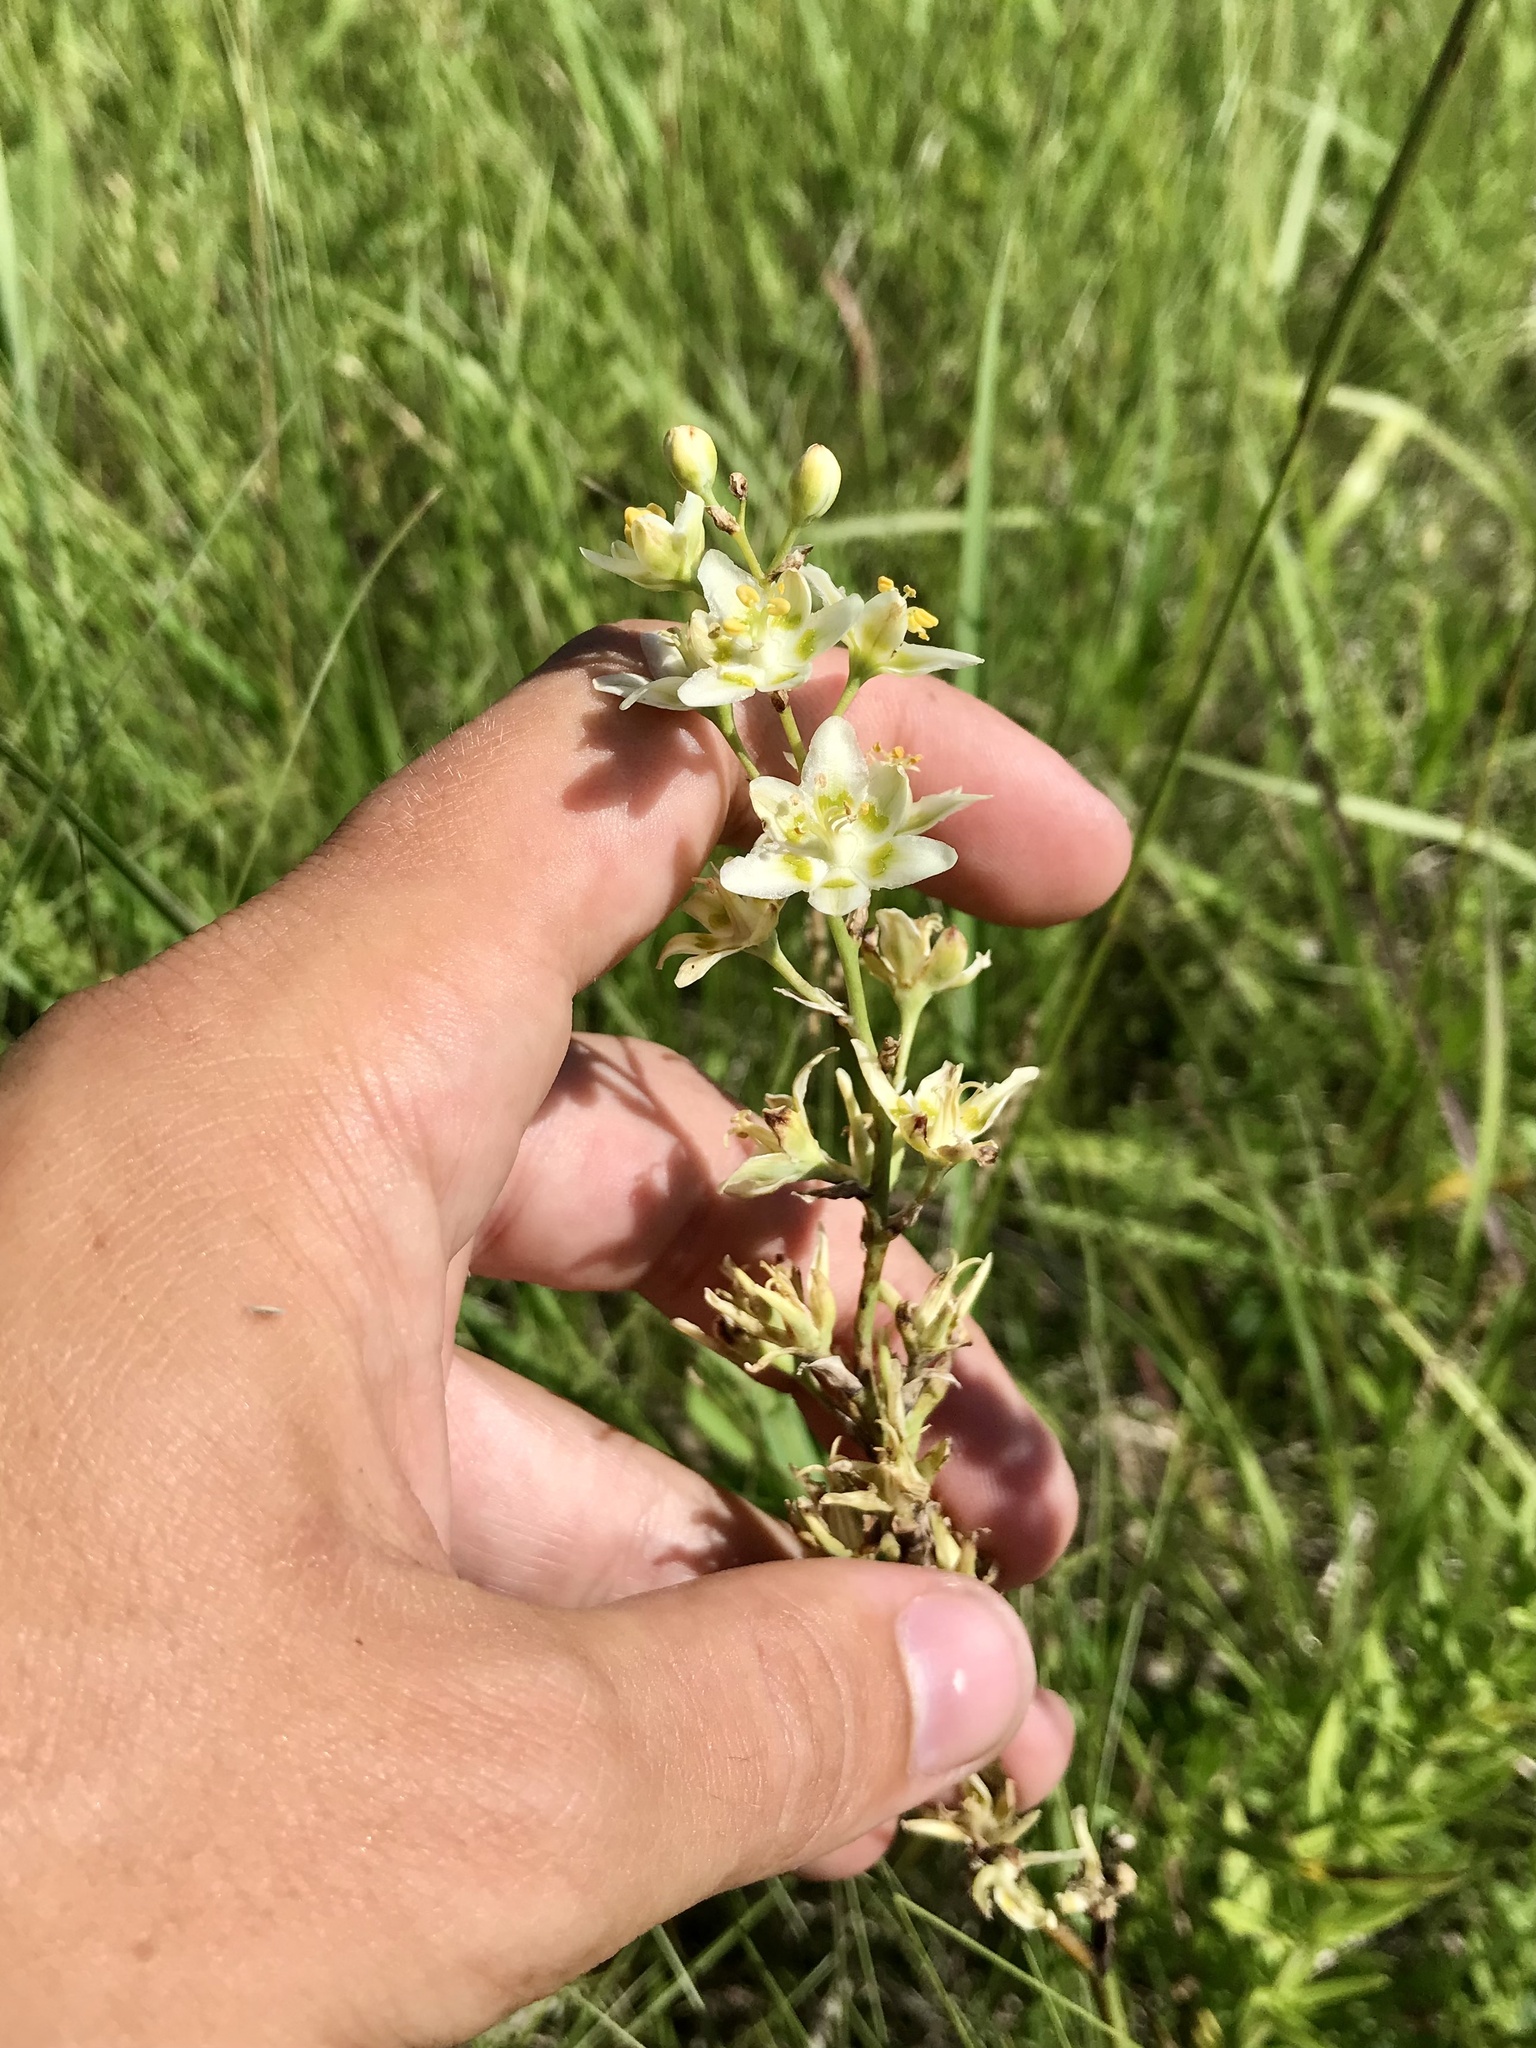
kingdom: Plantae
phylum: Tracheophyta
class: Liliopsida
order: Liliales
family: Melanthiaceae
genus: Anticlea
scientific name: Anticlea elegans
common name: Mountain death camas
